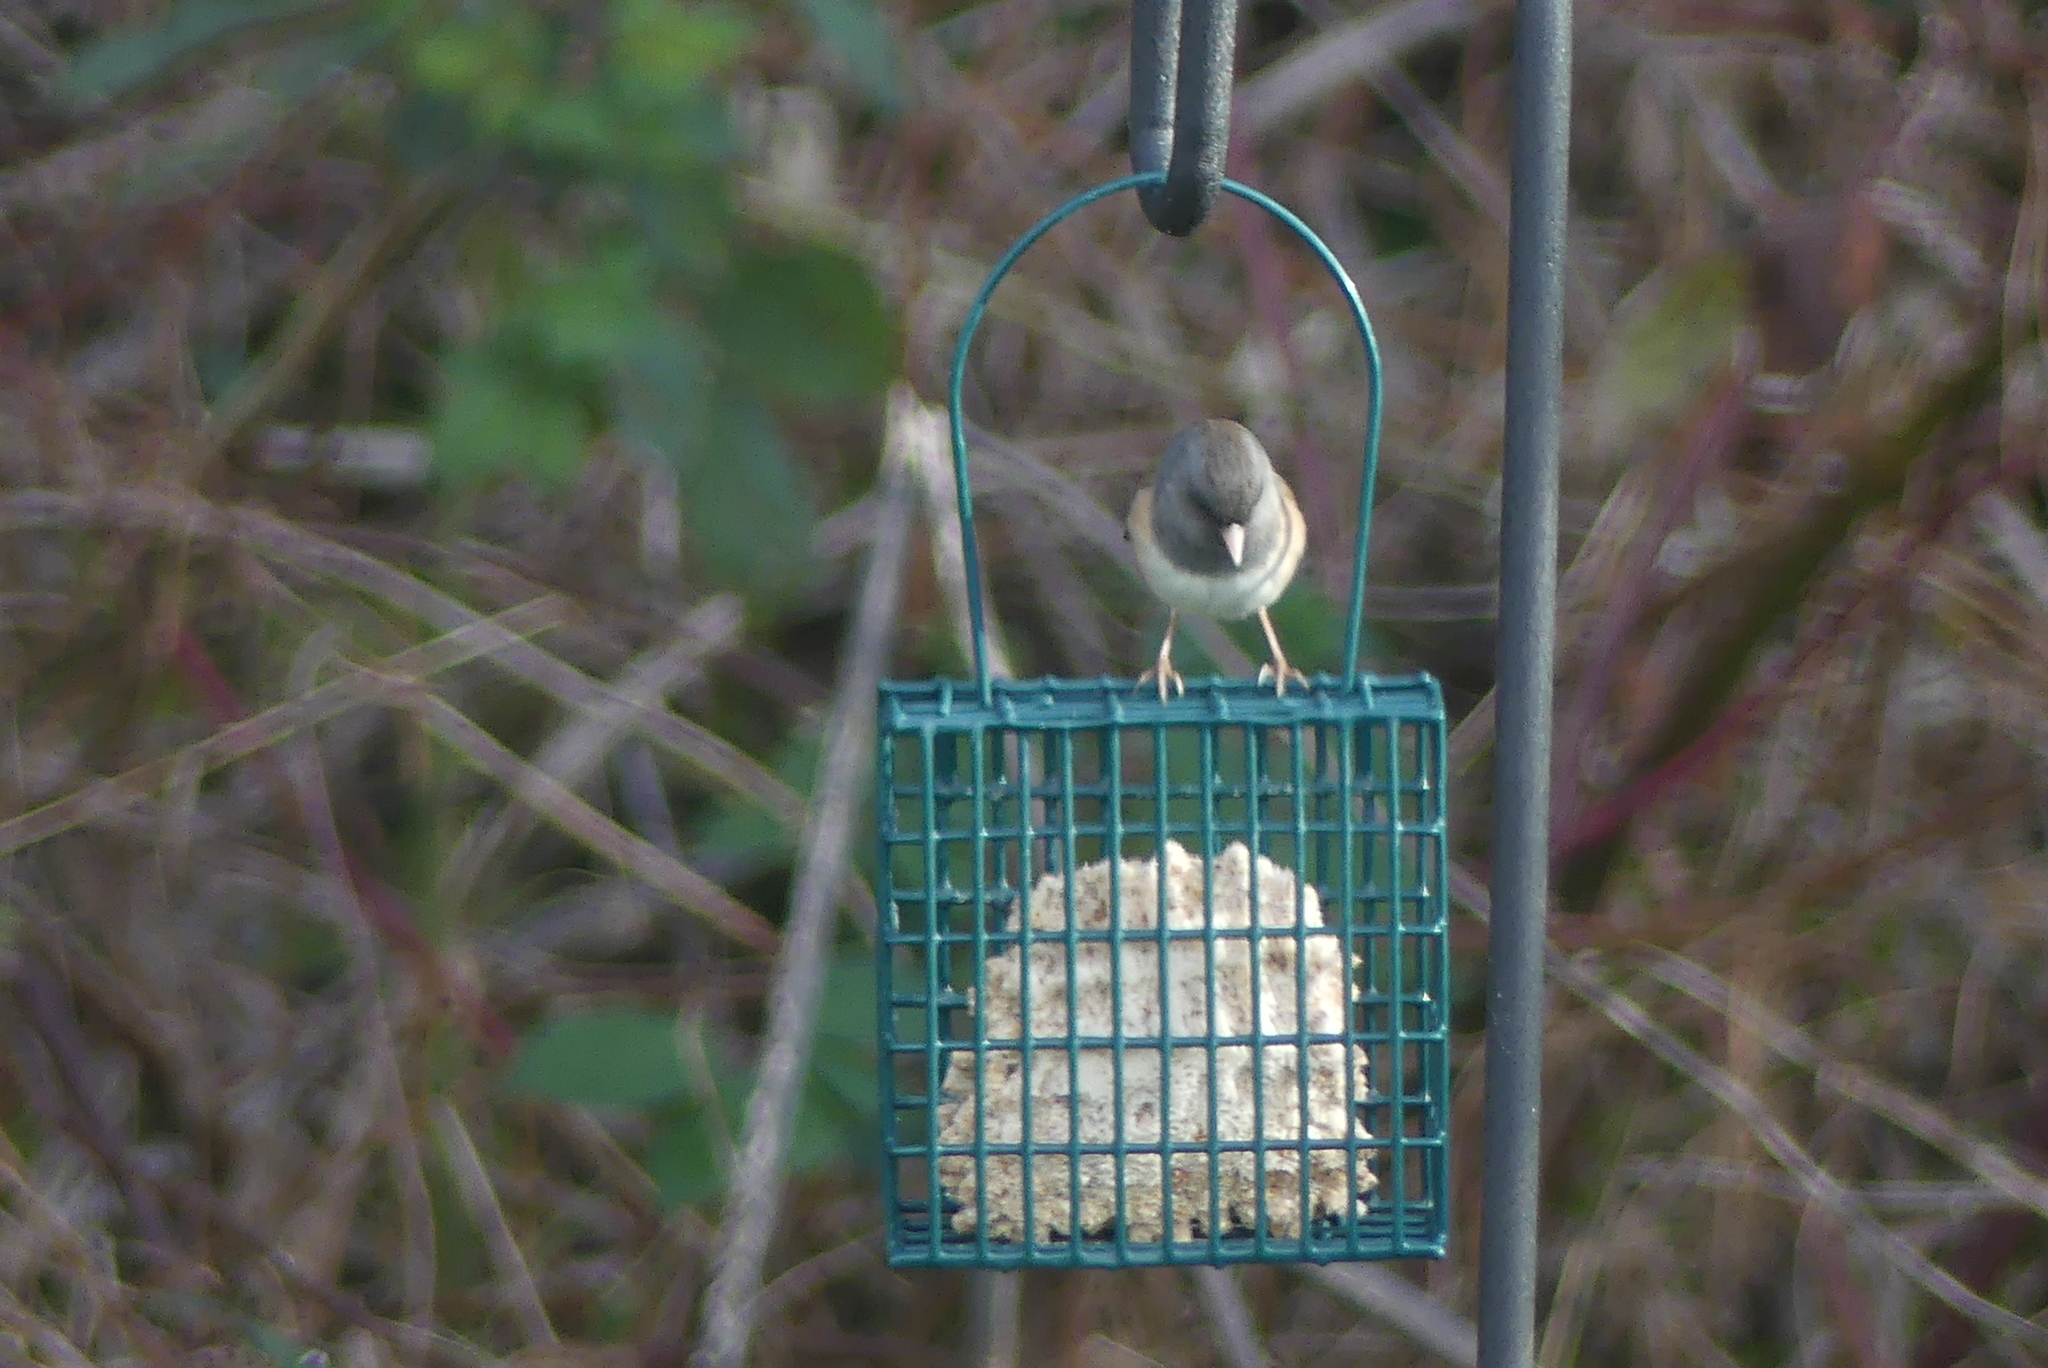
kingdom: Animalia
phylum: Chordata
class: Aves
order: Passeriformes
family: Passerellidae
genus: Junco
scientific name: Junco hyemalis
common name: Dark-eyed junco
